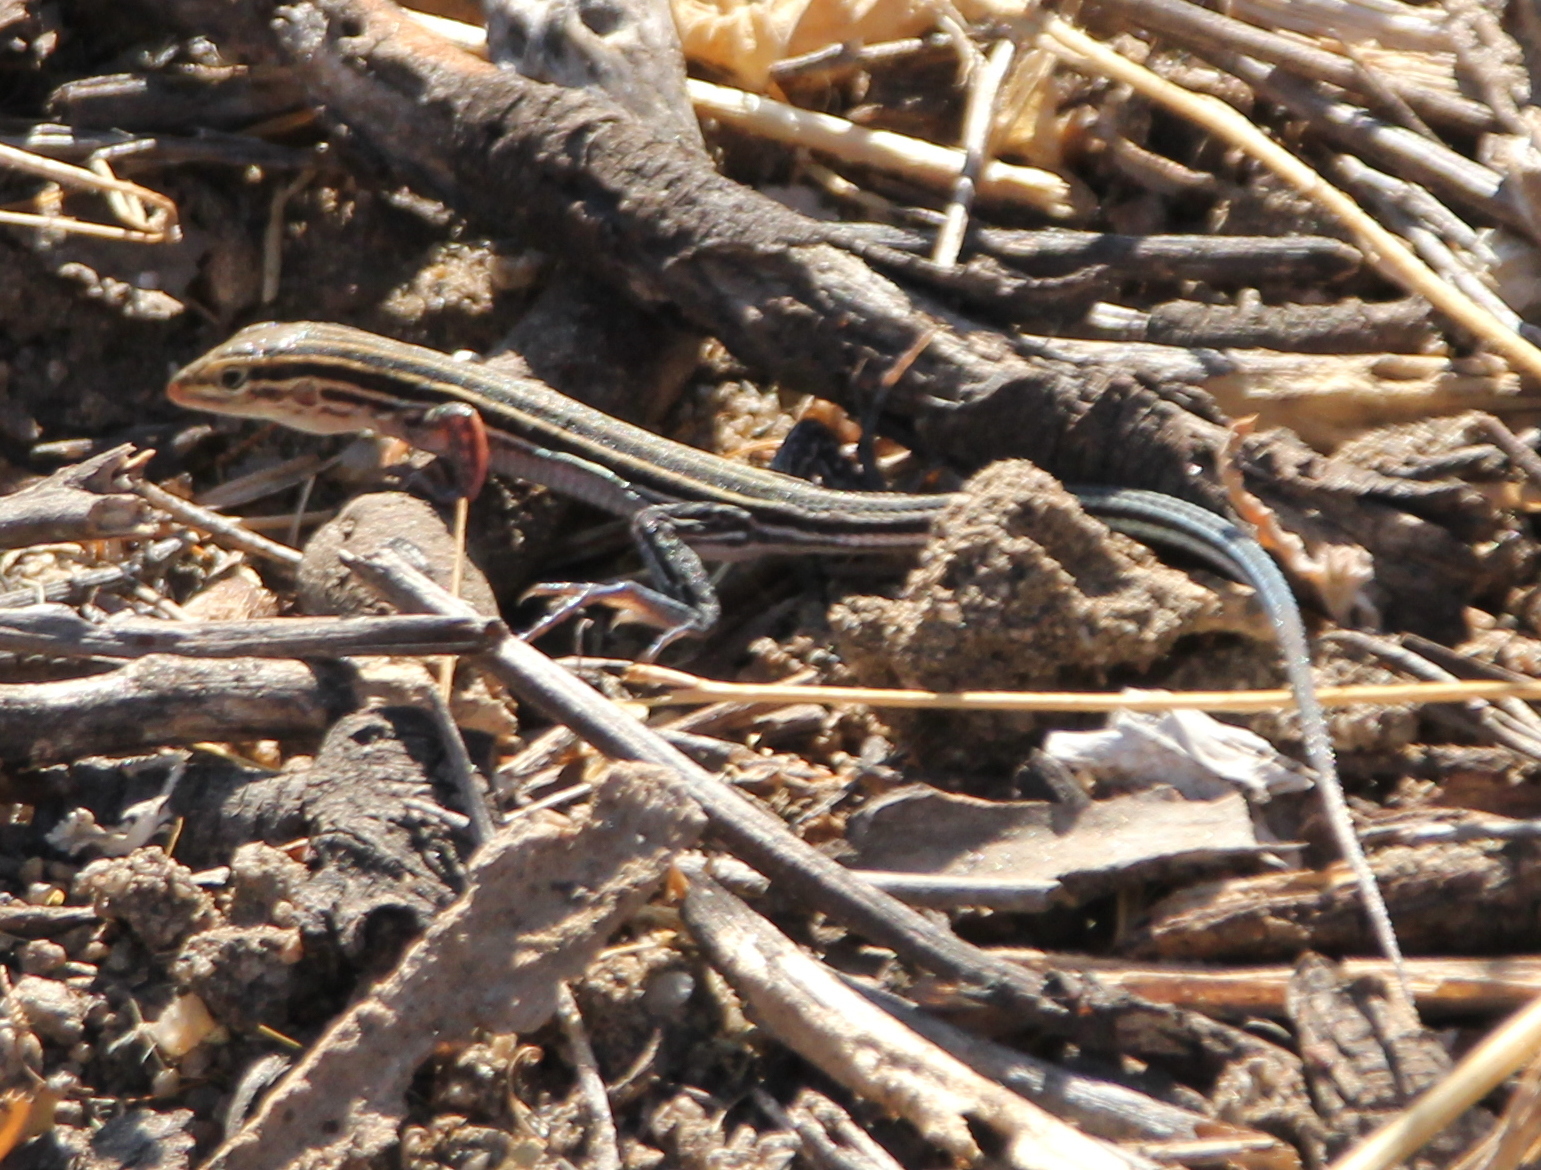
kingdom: Animalia
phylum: Chordata
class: Squamata
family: Teiidae
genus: Aspidoscelis
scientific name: Aspidoscelis hyperythrus
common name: Orange-throated race-runner
